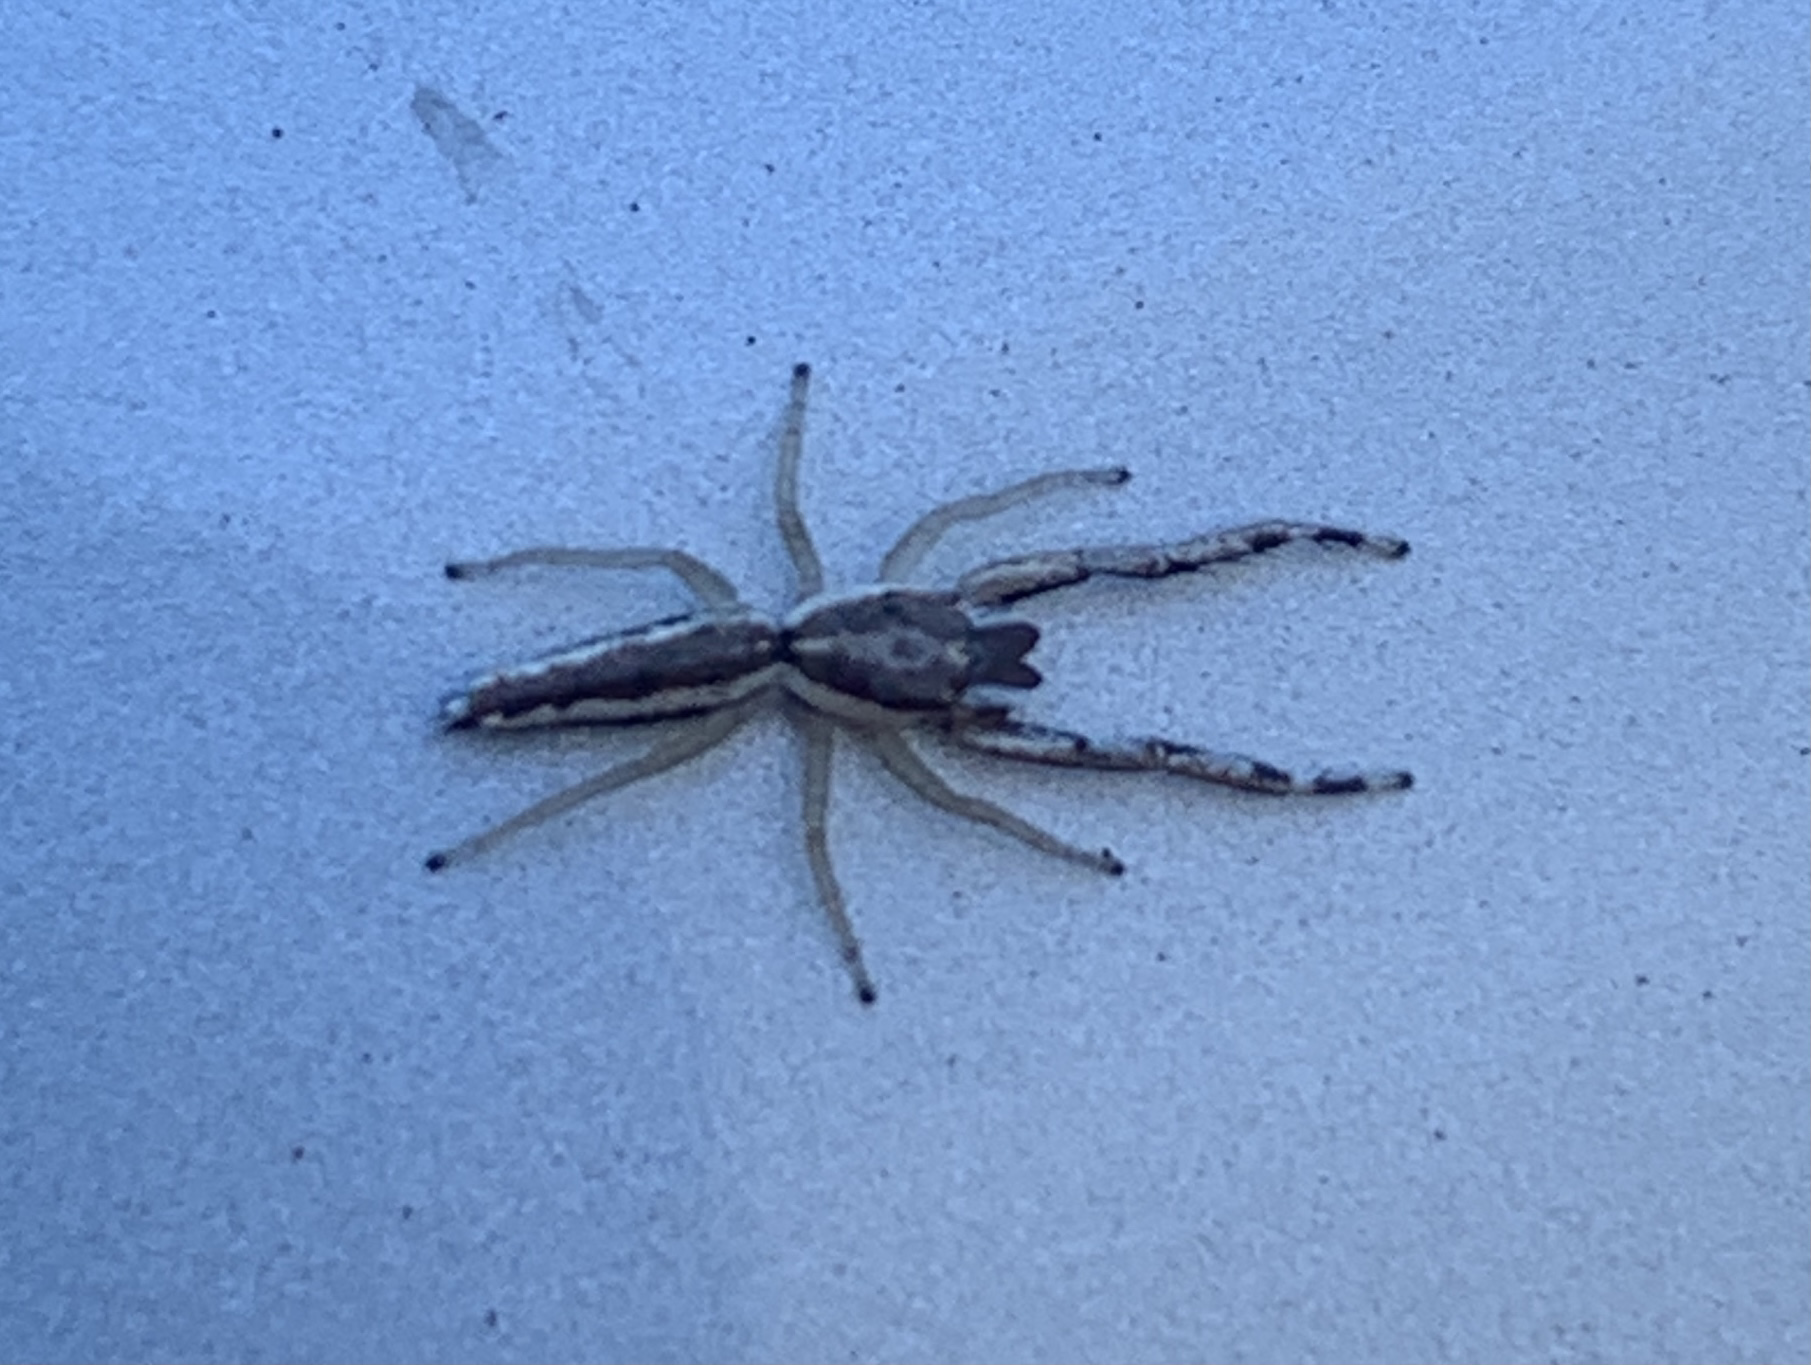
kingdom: Animalia
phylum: Arthropoda
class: Arachnida
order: Araneae
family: Salticidae
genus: Hentzia
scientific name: Hentzia grenada
